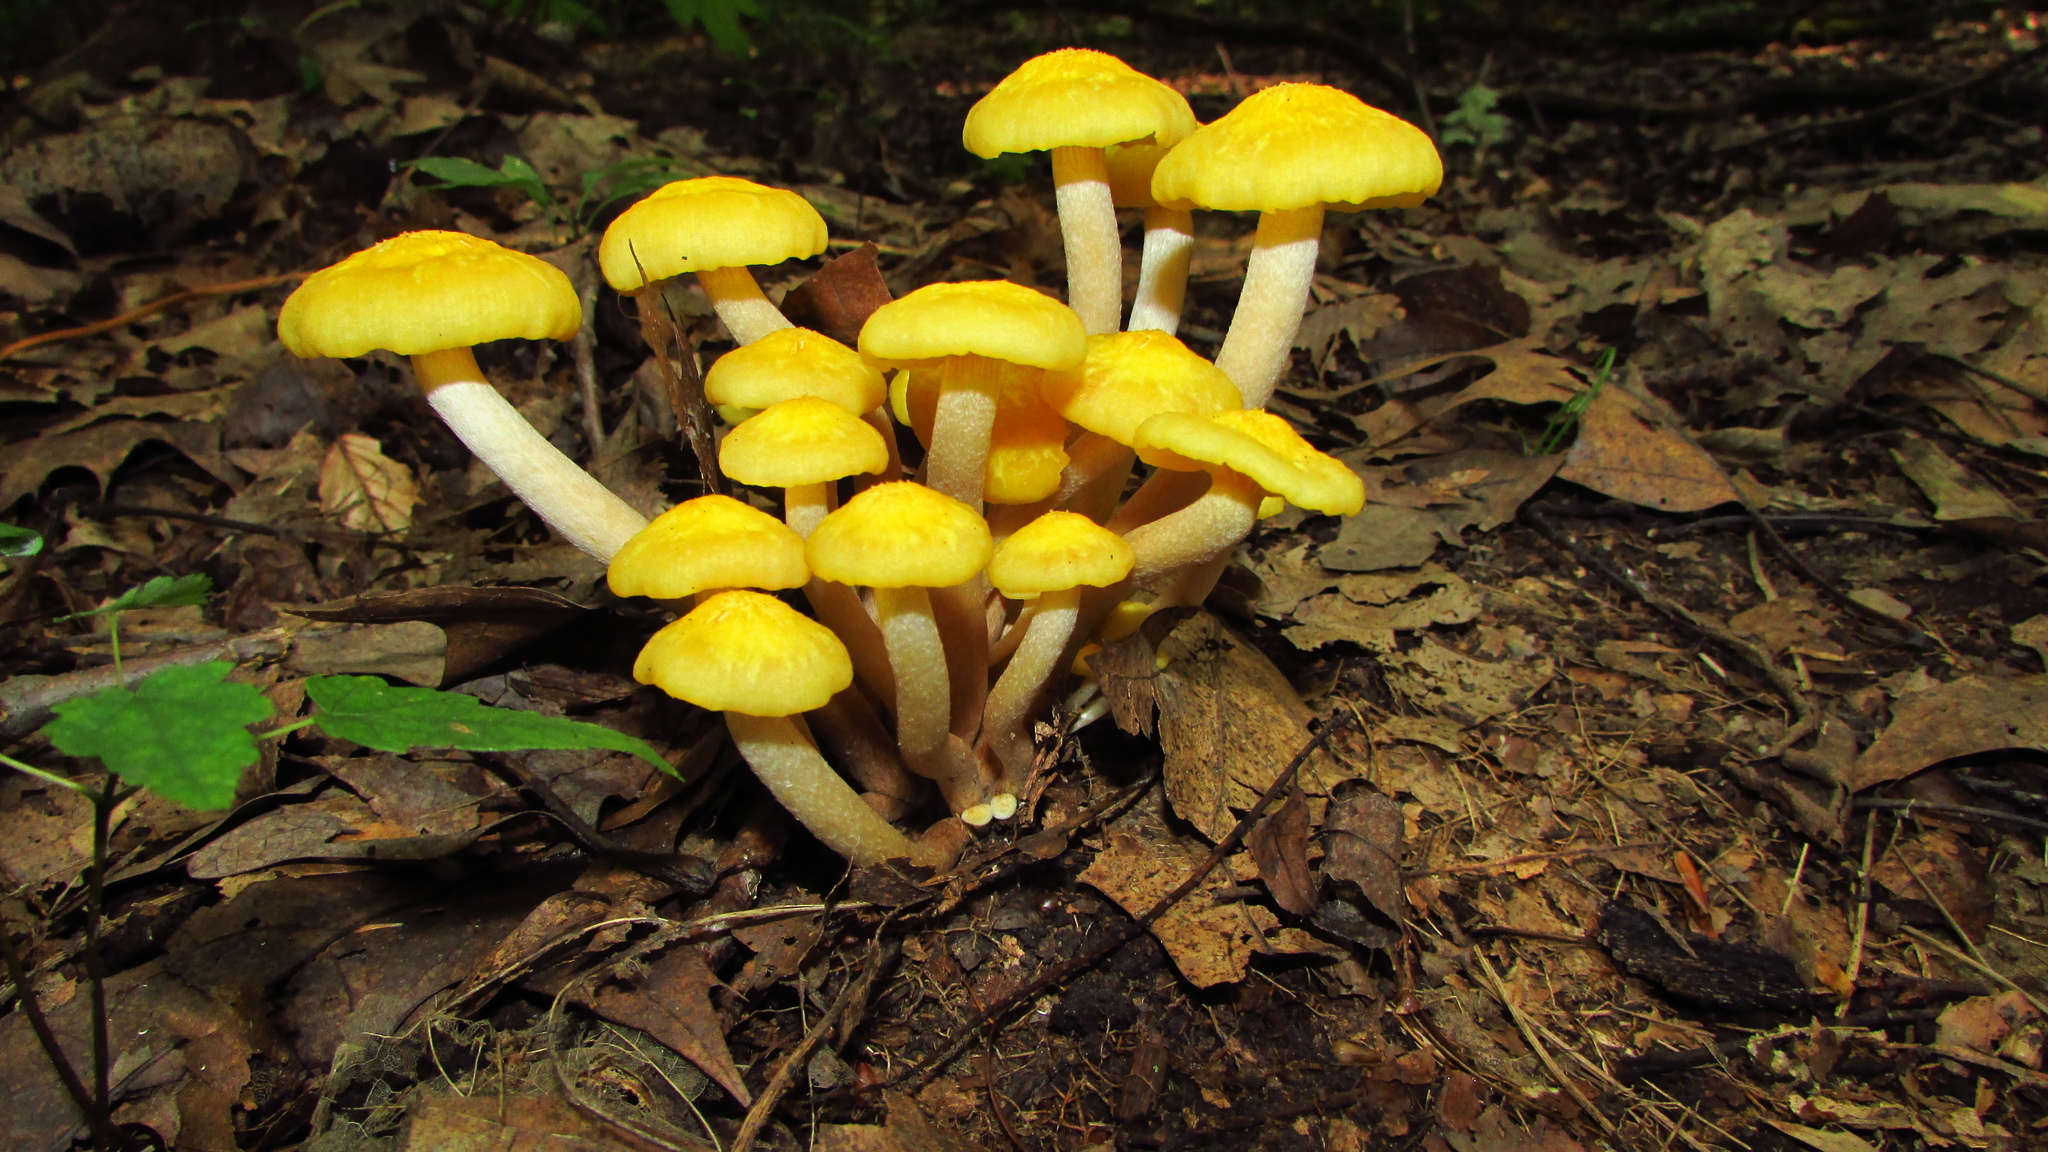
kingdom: Fungi
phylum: Basidiomycota
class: Agaricomycetes
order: Agaricales
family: Physalacriaceae
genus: Desarmillaria
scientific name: Desarmillaria caespitosa
